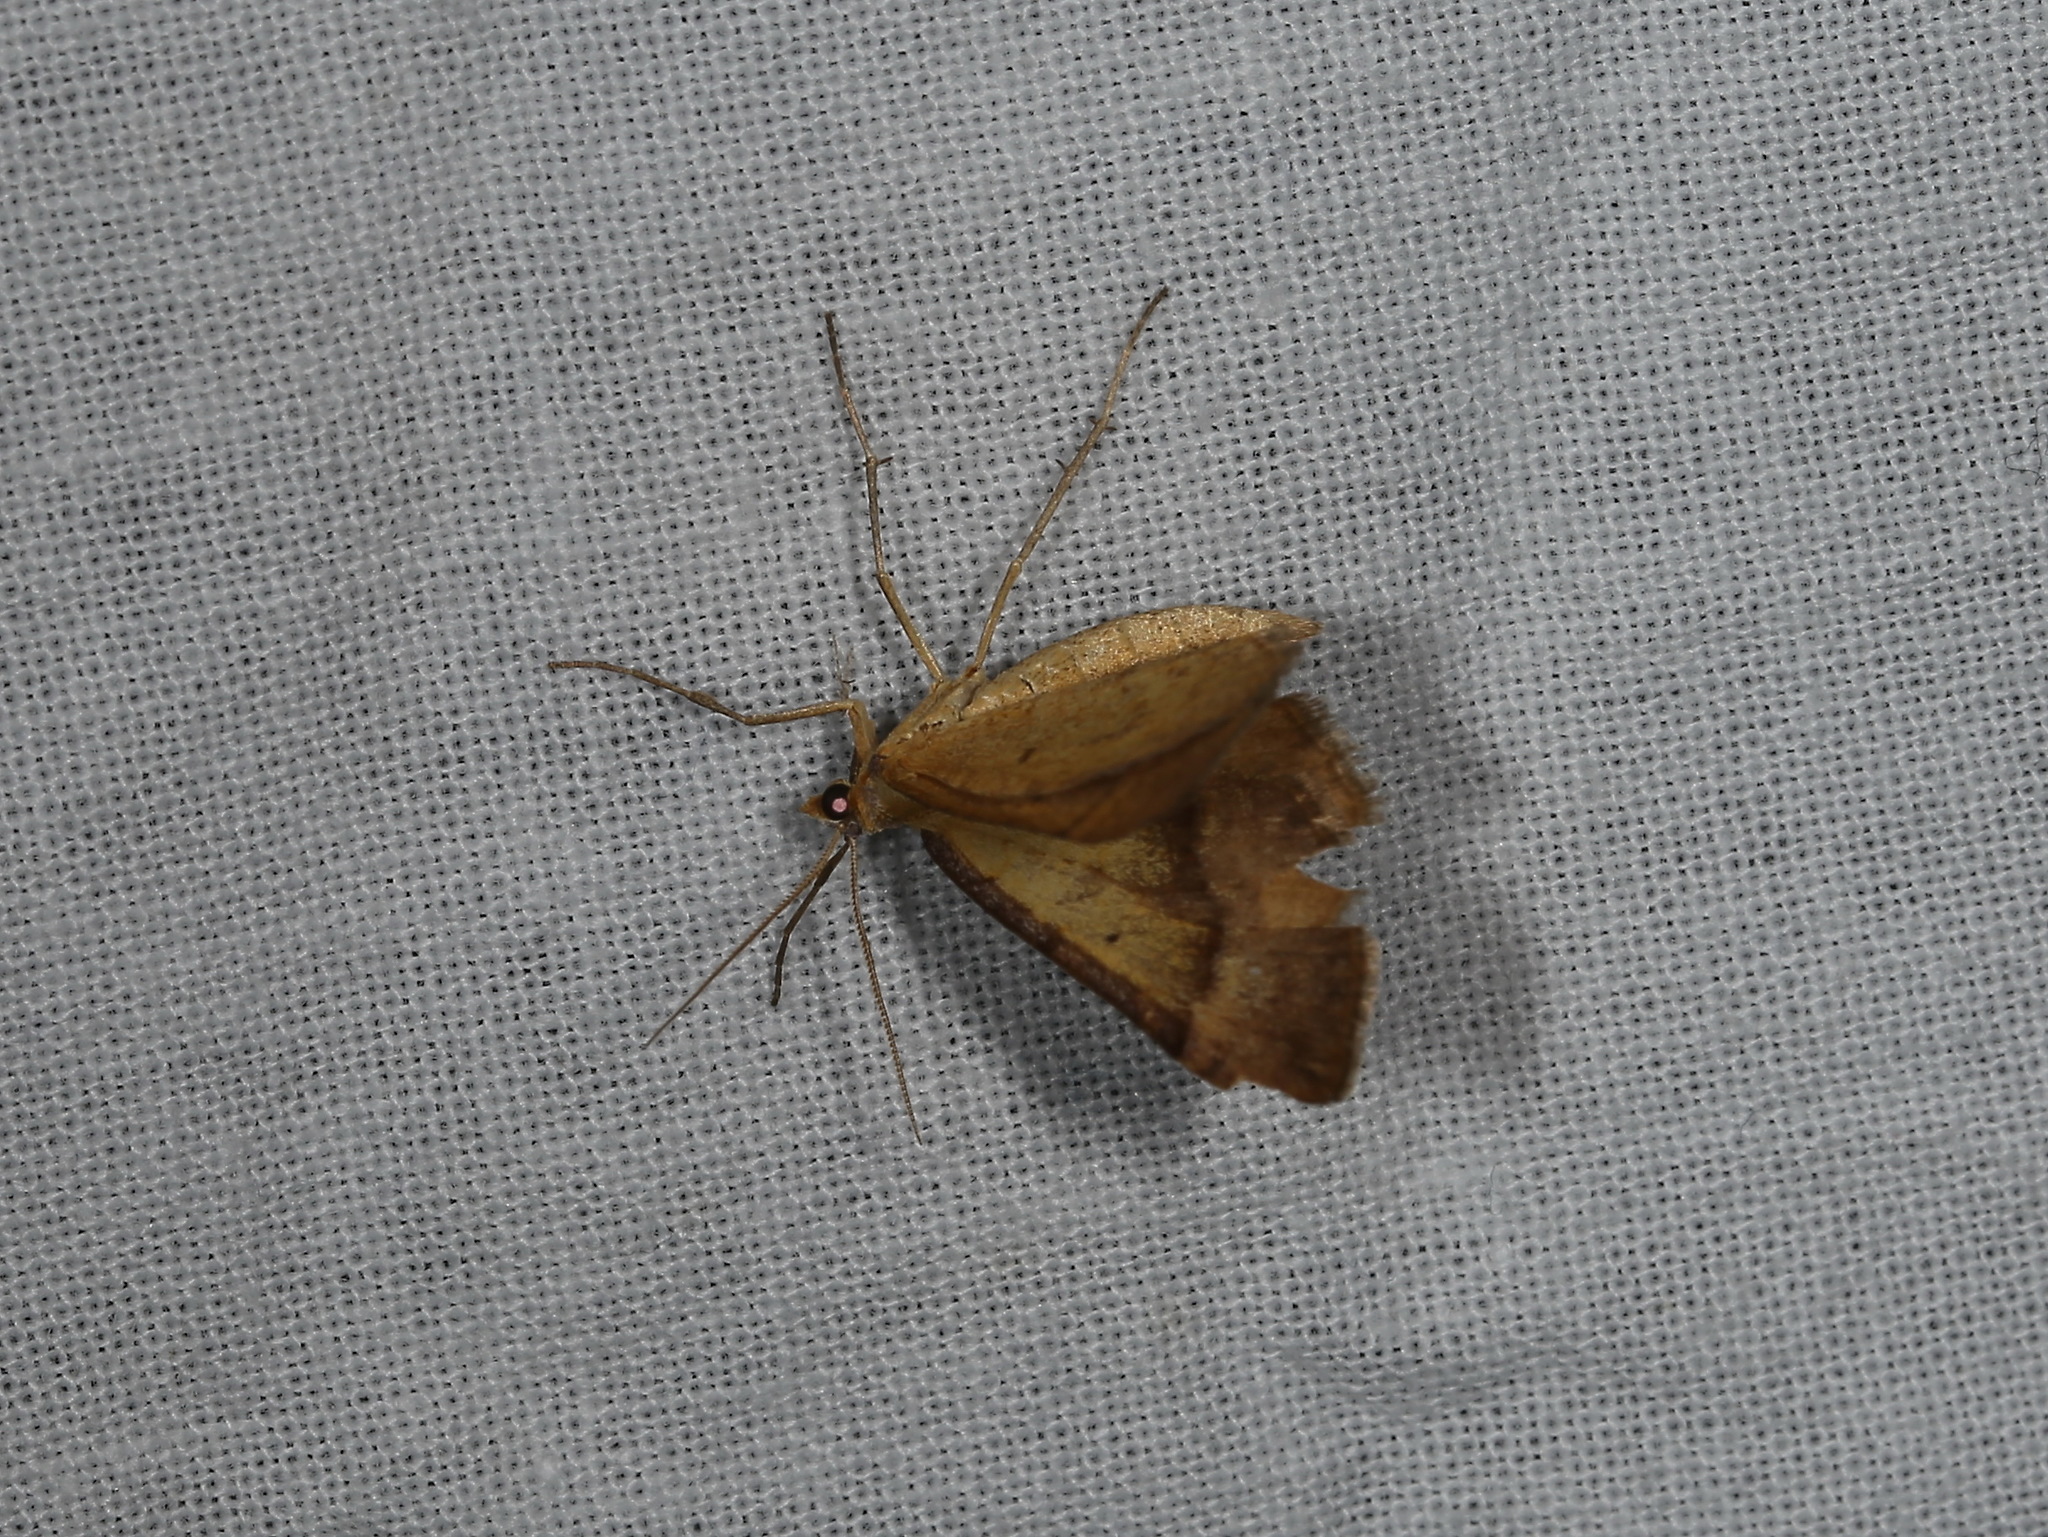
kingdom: Animalia
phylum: Arthropoda
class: Insecta
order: Lepidoptera
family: Geometridae
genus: Anachloris
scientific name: Anachloris subochraria
